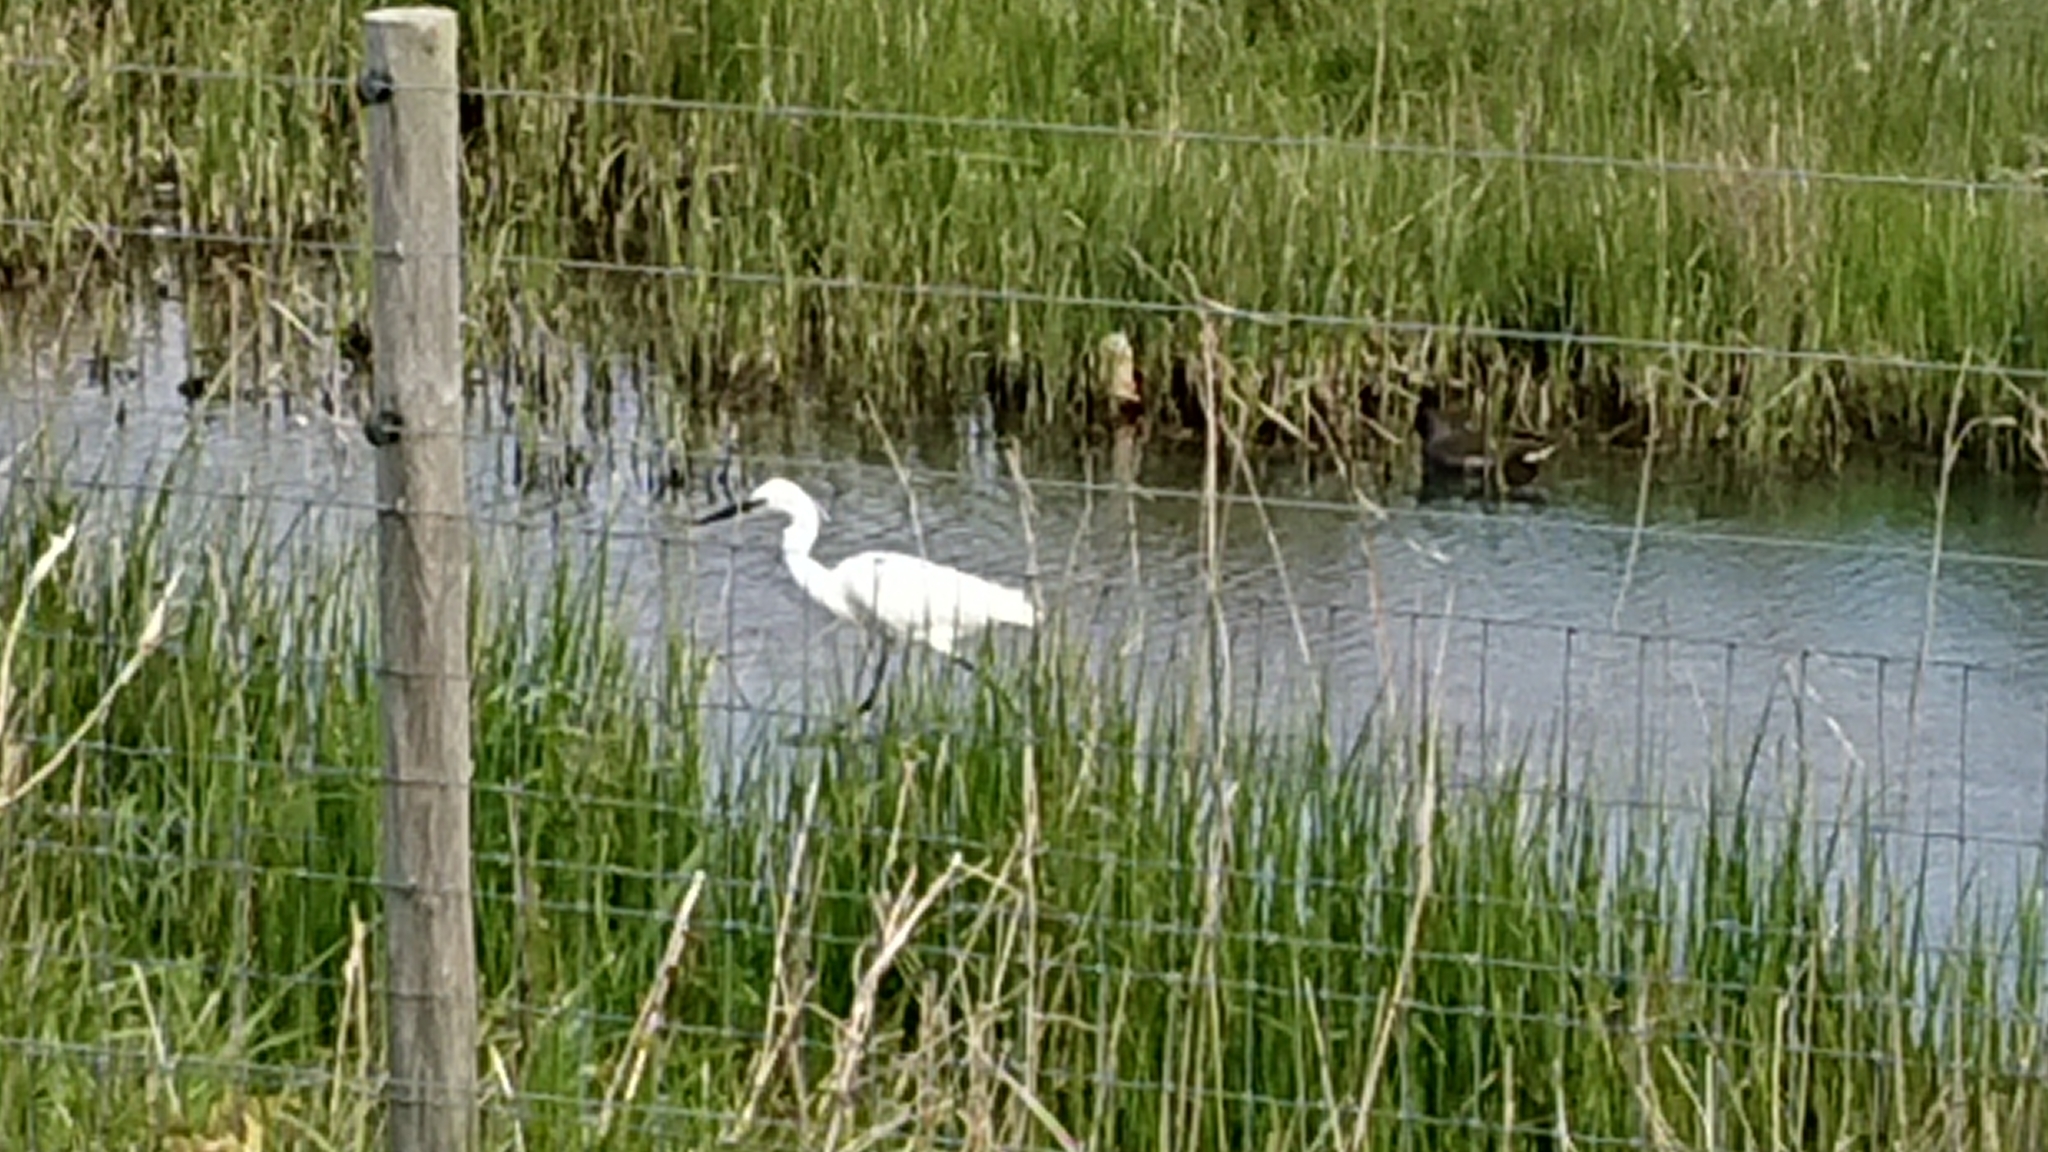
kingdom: Animalia
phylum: Chordata
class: Aves
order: Pelecaniformes
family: Ardeidae
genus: Egretta
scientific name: Egretta garzetta
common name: Little egret
